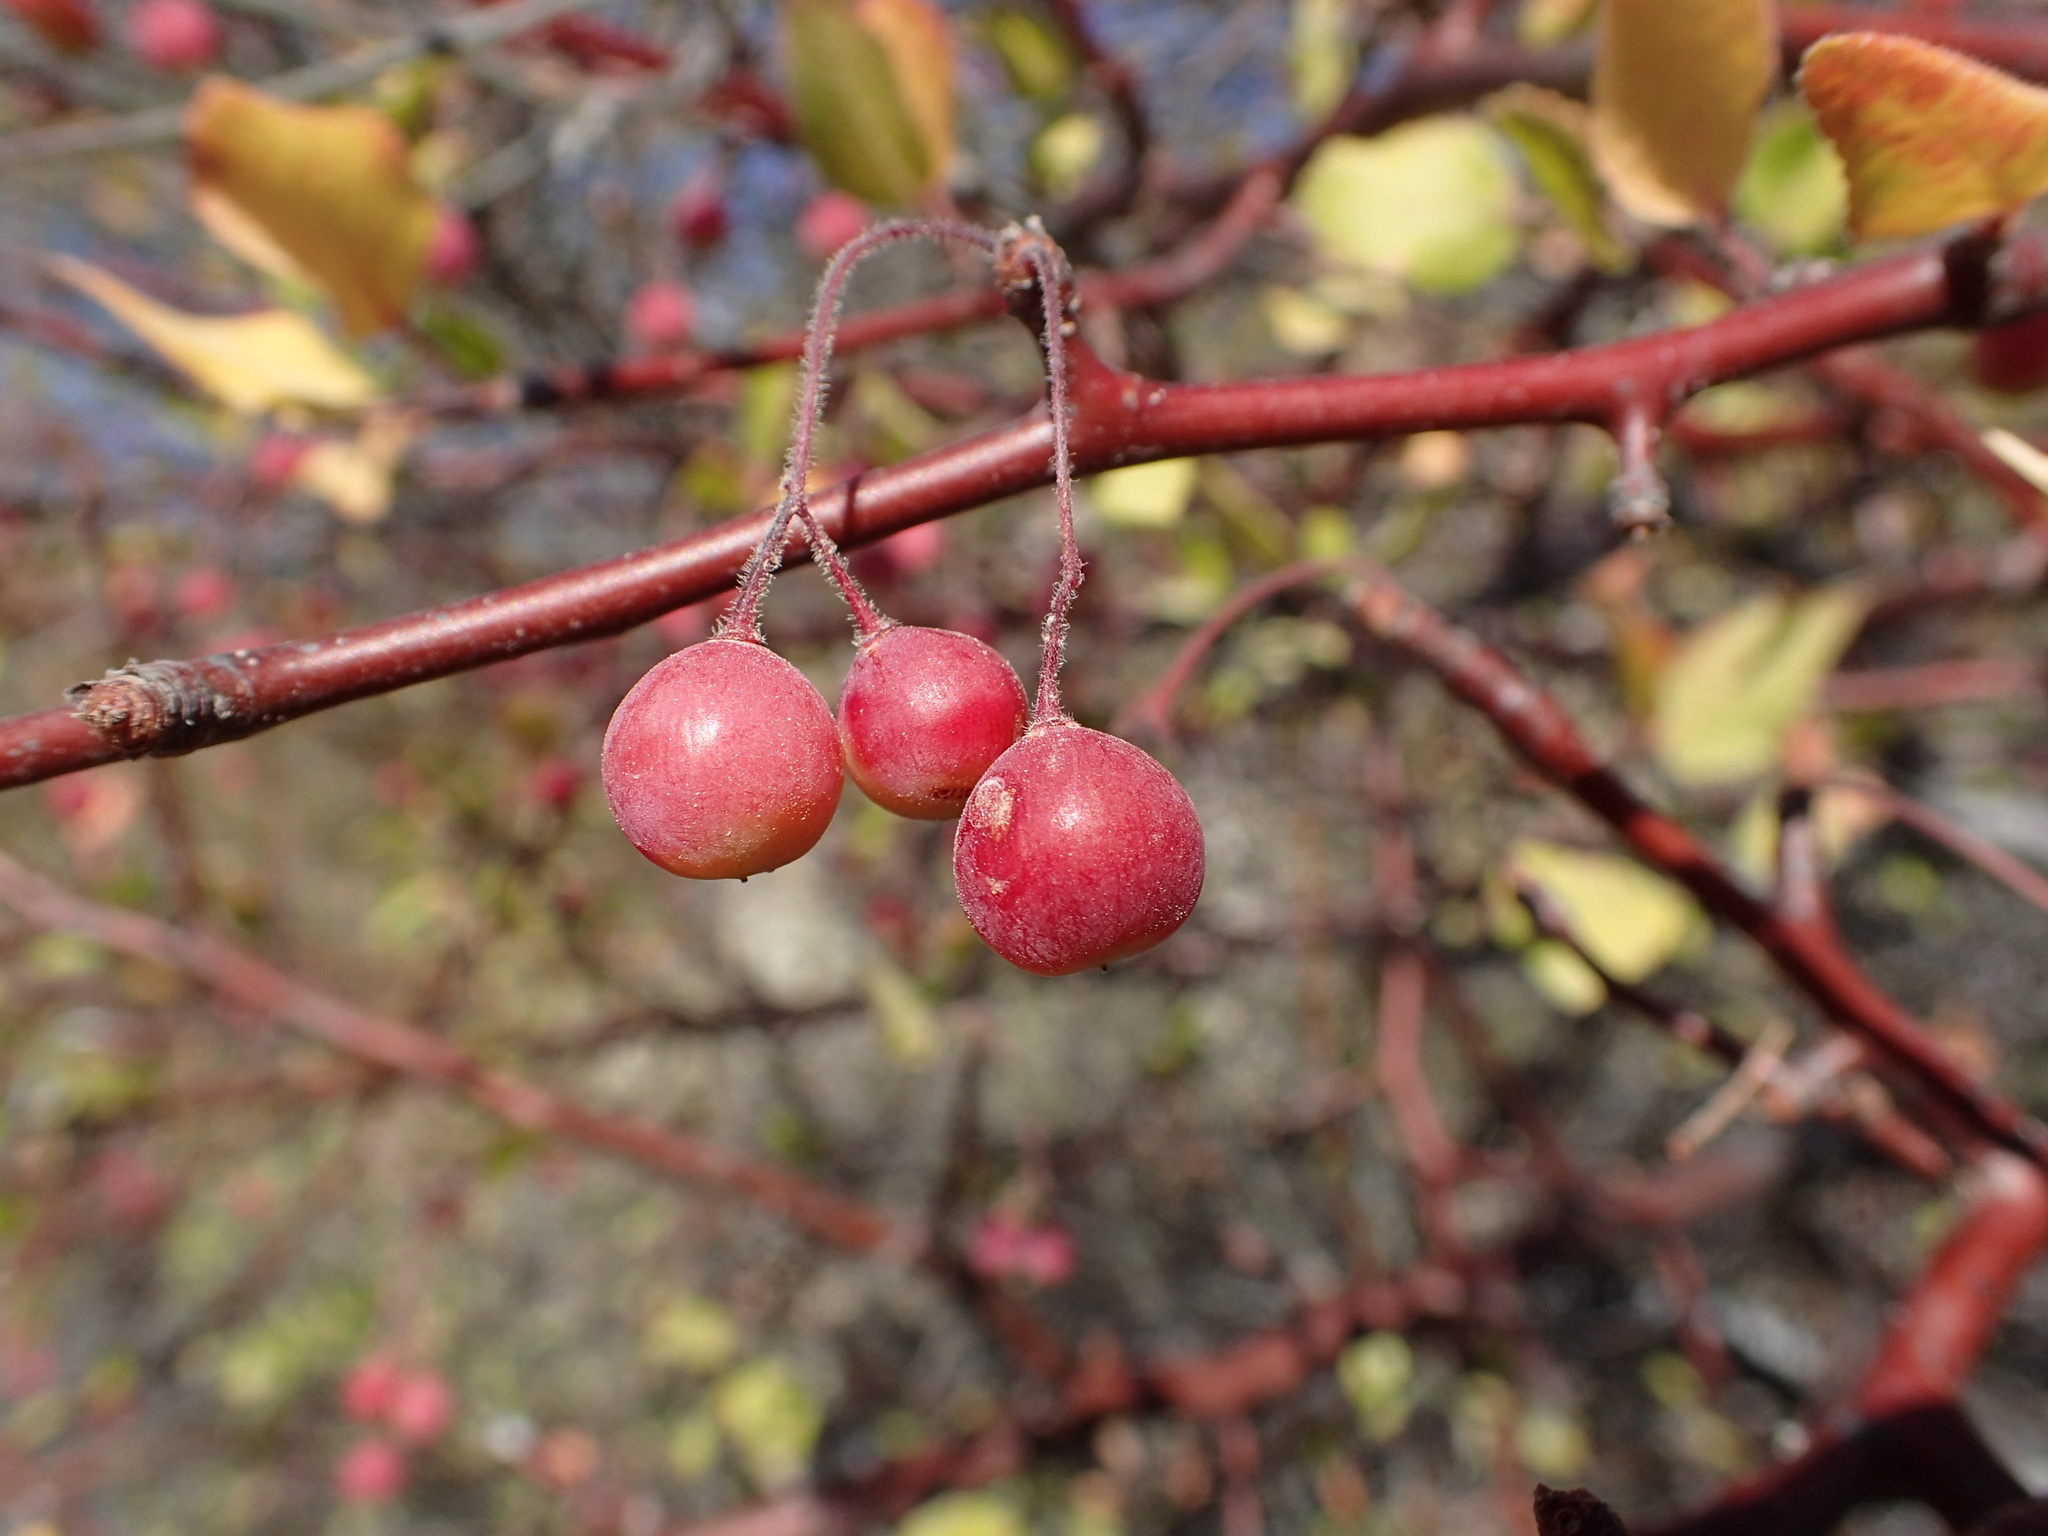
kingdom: Plantae
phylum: Tracheophyta
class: Magnoliopsida
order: Sapindales
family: Burseraceae
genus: Bursera
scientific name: Bursera epinnata
